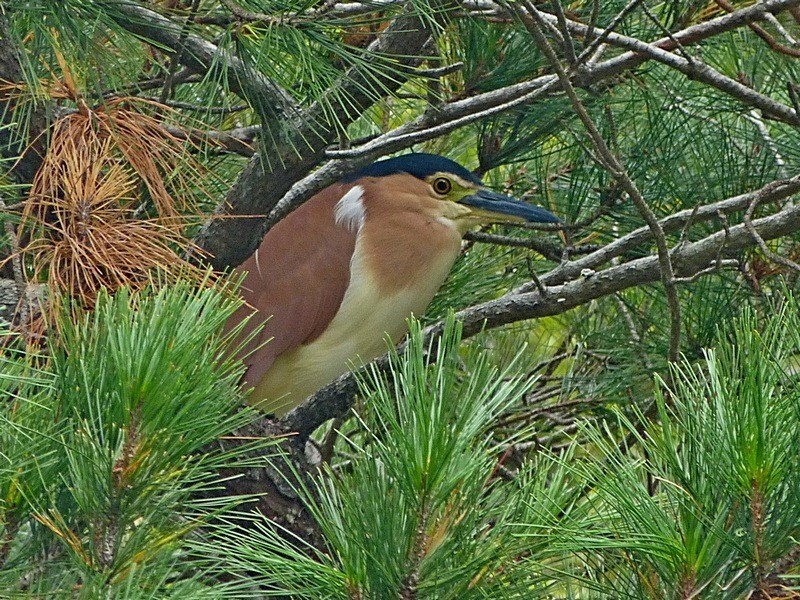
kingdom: Animalia
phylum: Chordata
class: Aves
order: Pelecaniformes
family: Ardeidae
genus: Nycticorax
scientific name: Nycticorax caledonicus
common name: Rufous night-heron
